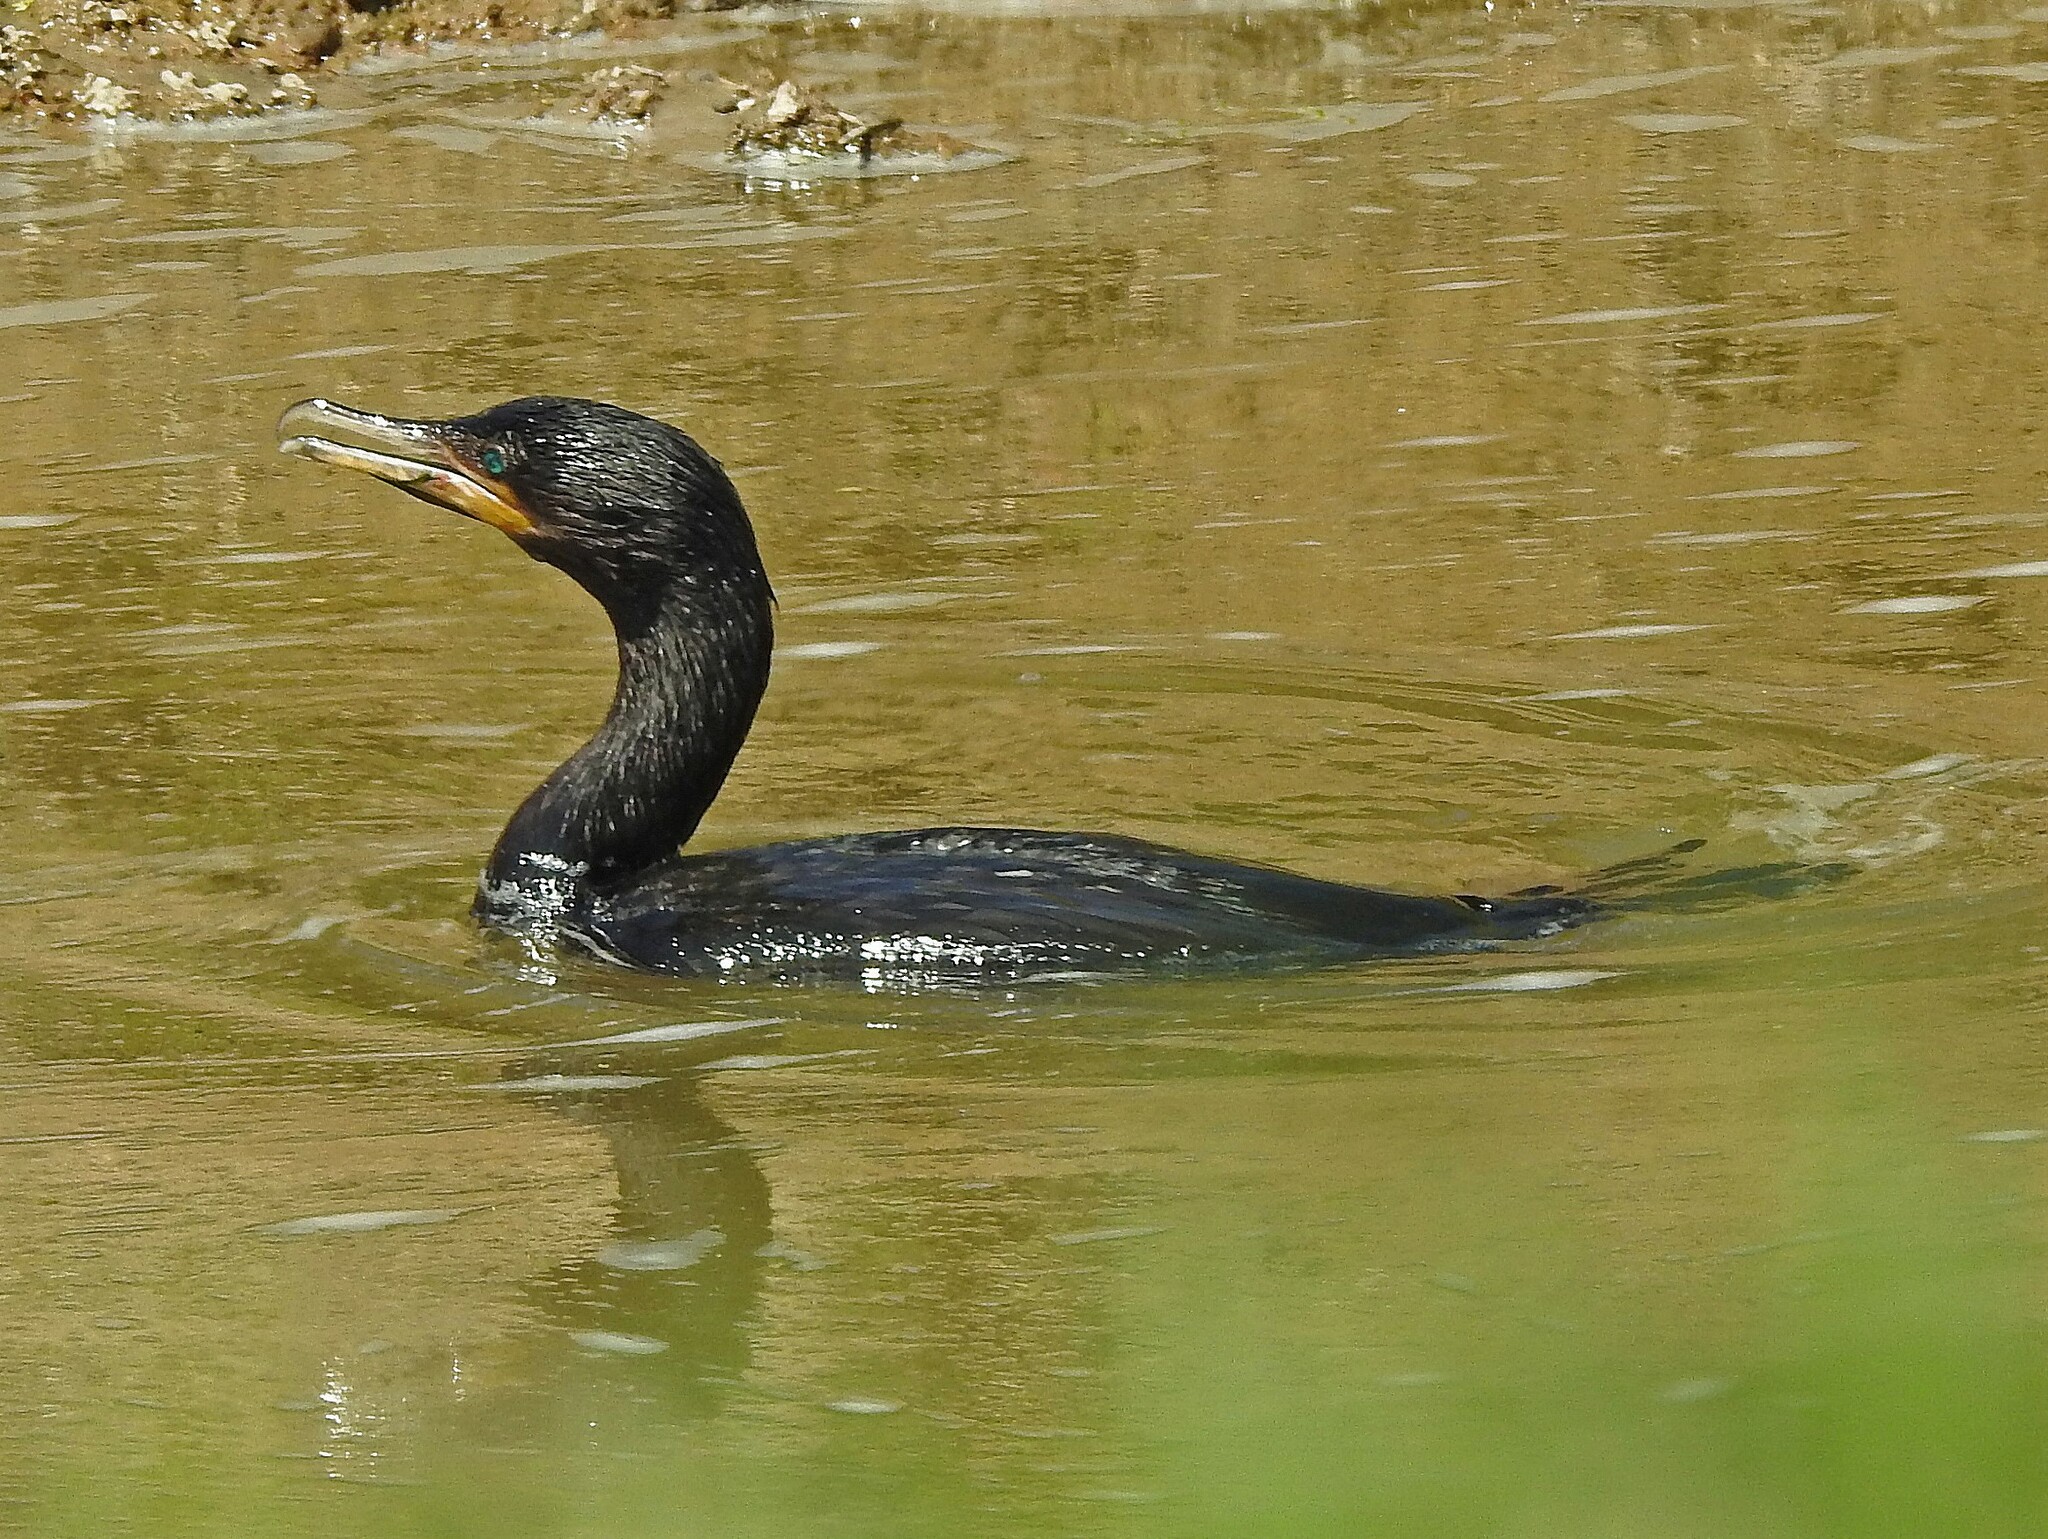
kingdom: Animalia
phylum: Chordata
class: Aves
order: Suliformes
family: Phalacrocoracidae
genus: Phalacrocorax
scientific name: Phalacrocorax brasilianus
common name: Neotropic cormorant
